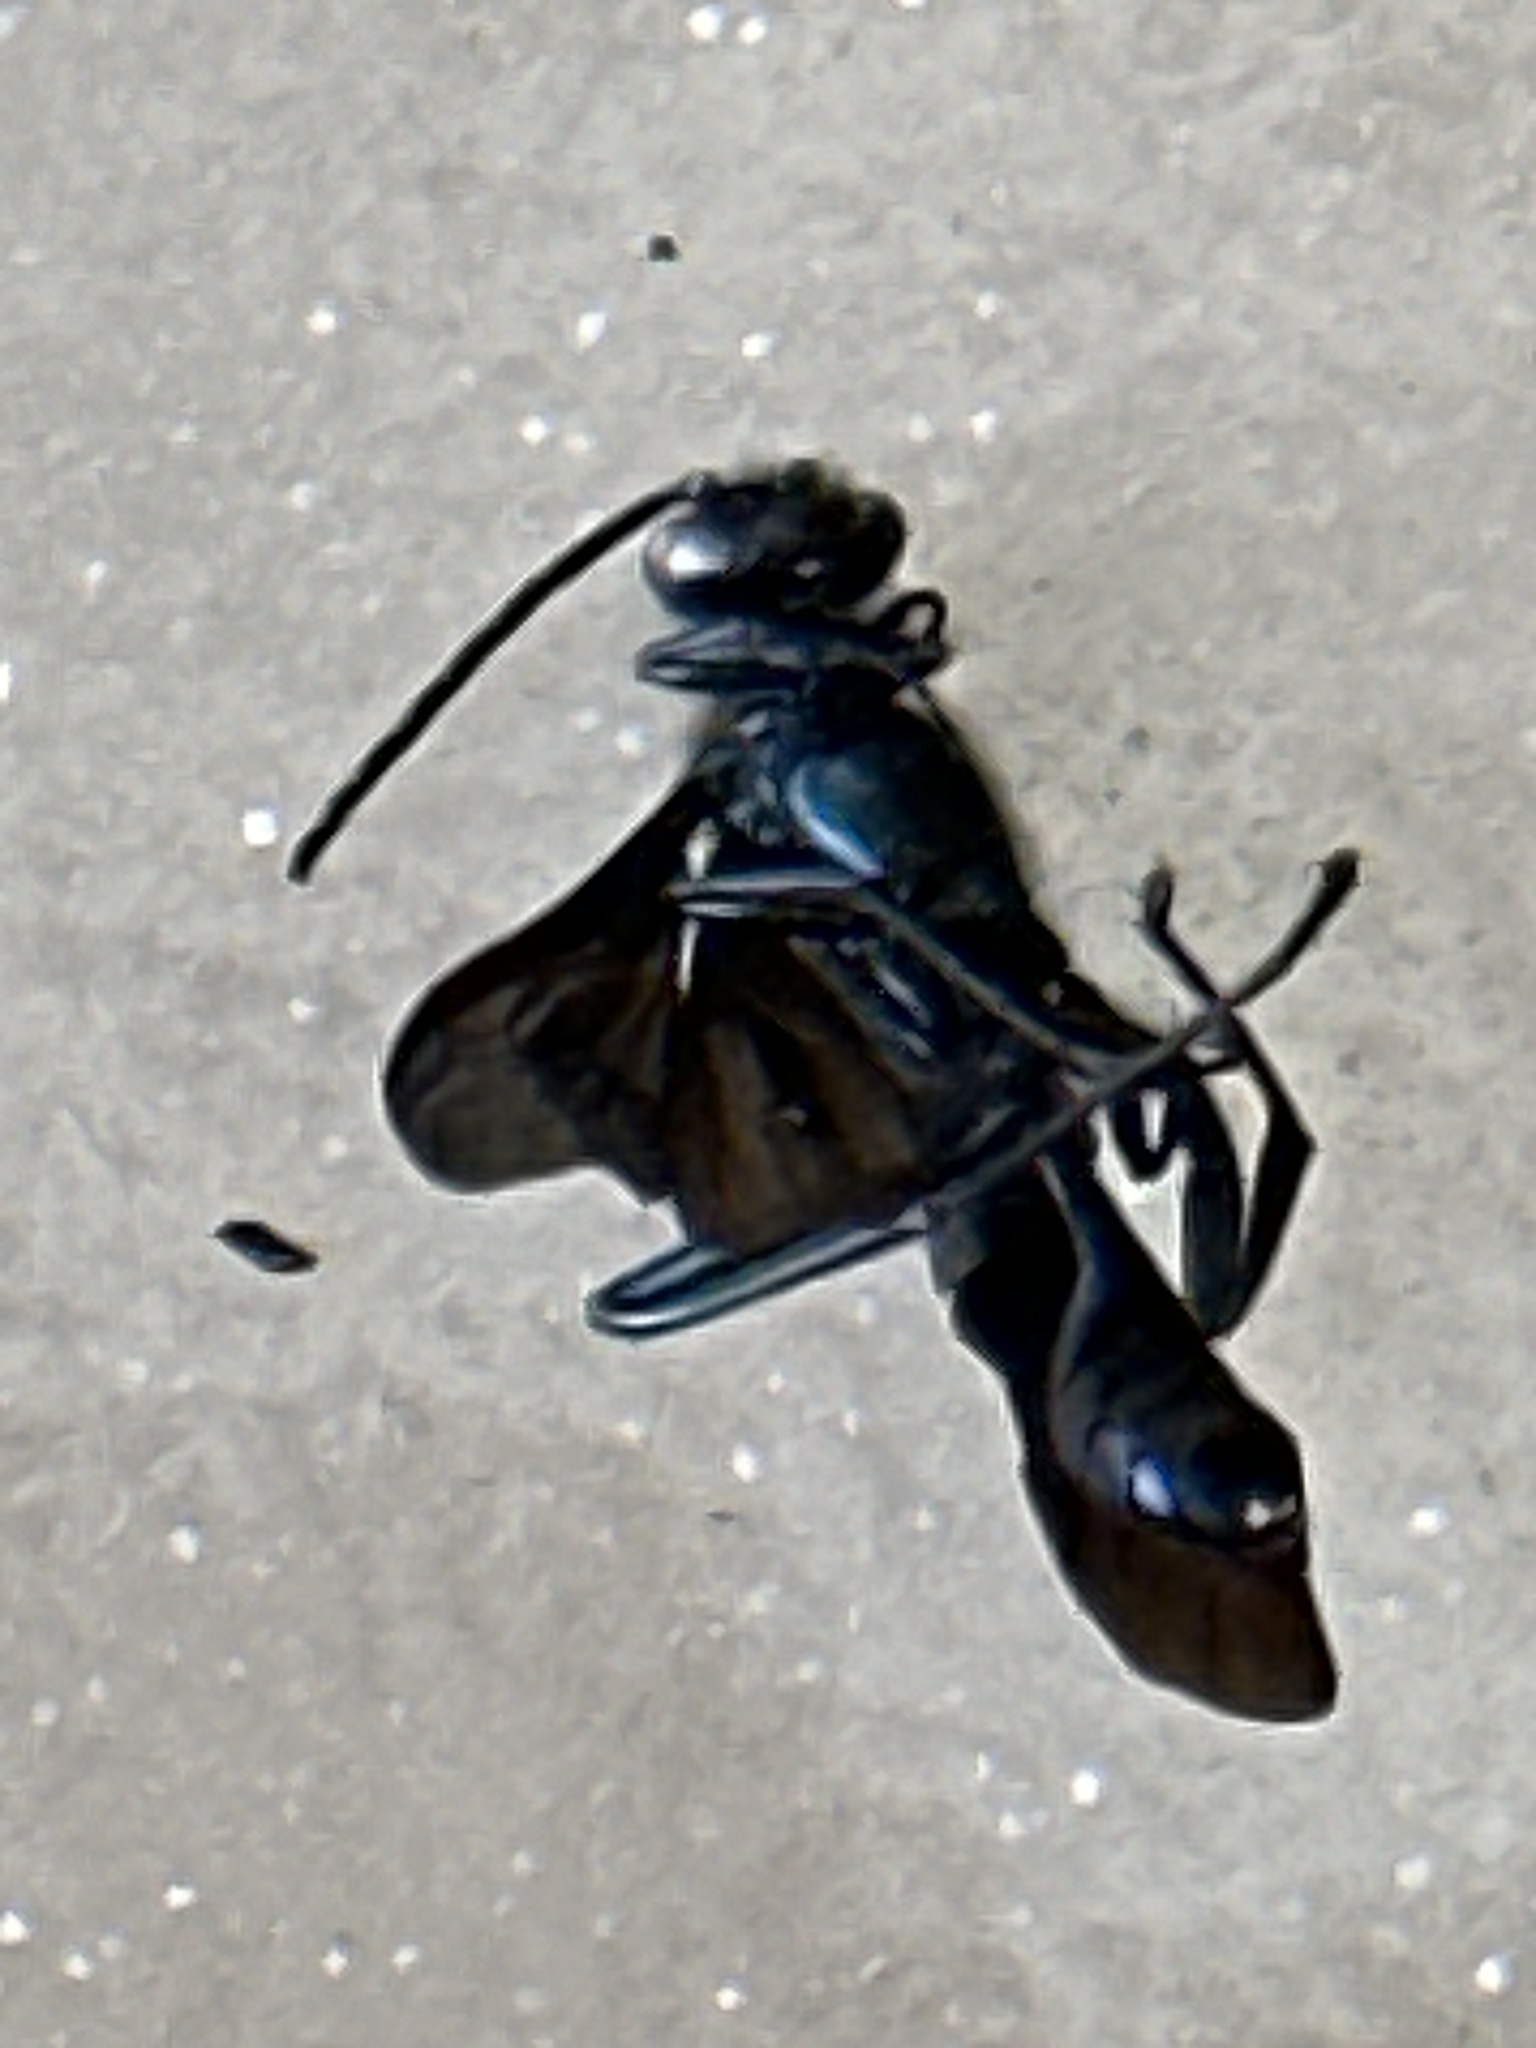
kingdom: Animalia
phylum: Arthropoda
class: Insecta
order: Hymenoptera
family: Sphecidae
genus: Chalybion
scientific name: Chalybion californicum
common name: Mud dauber
